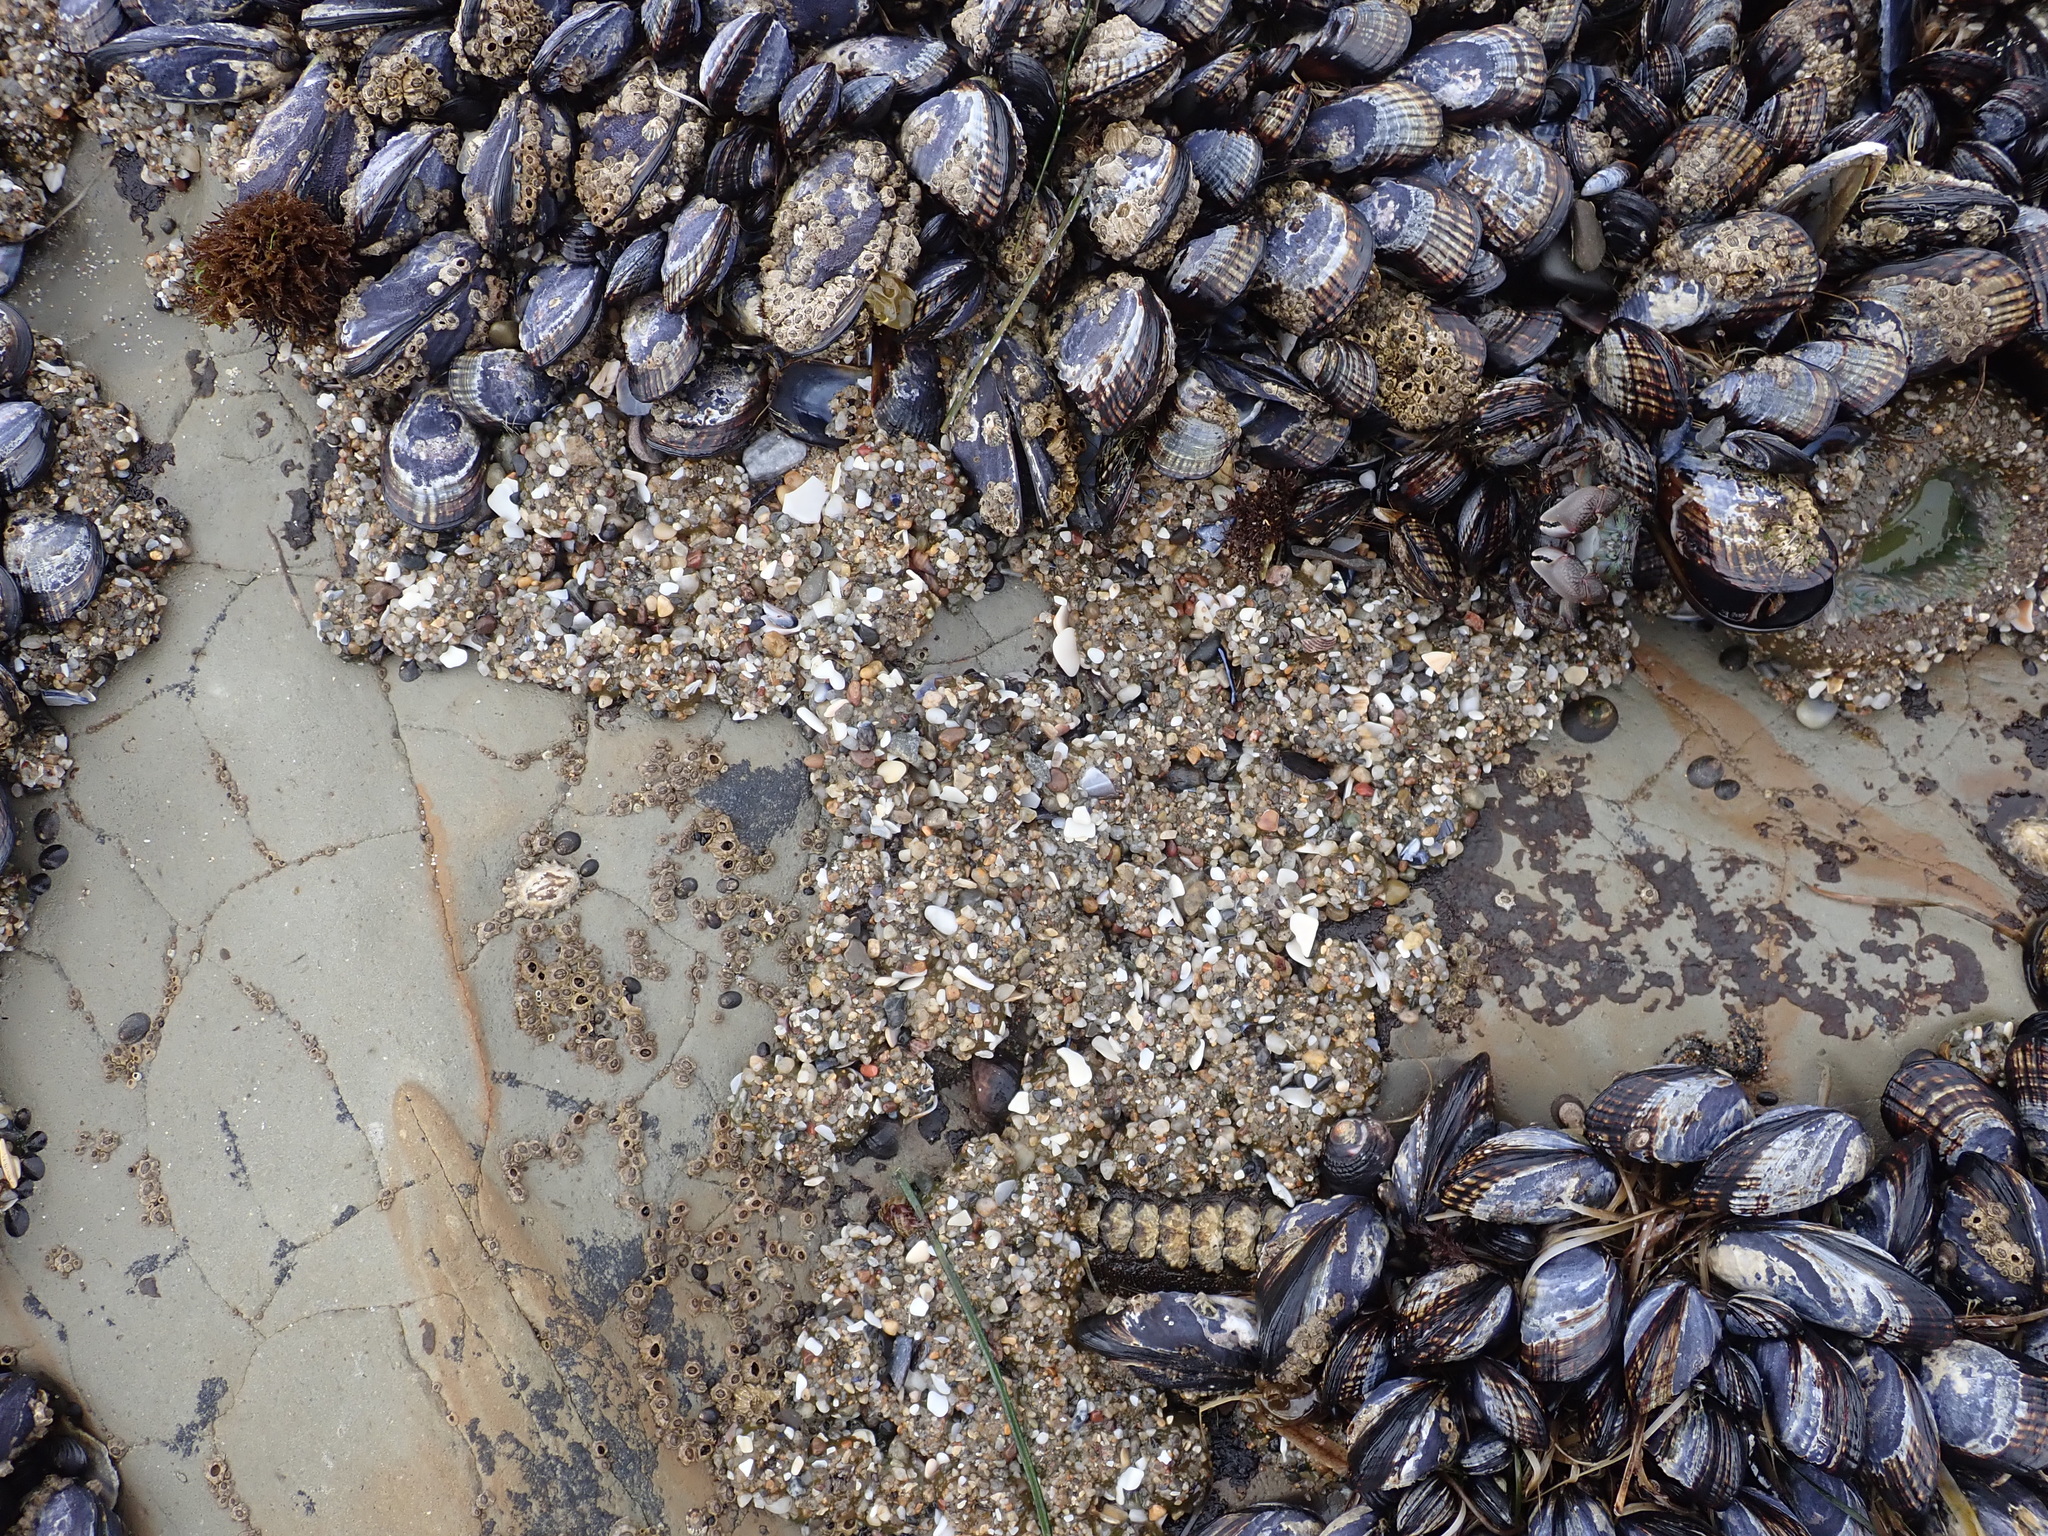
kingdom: Animalia
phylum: Cnidaria
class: Anthozoa
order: Actiniaria
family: Actiniidae
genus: Anthopleura
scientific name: Anthopleura elegantissima
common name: Clonal anemone
